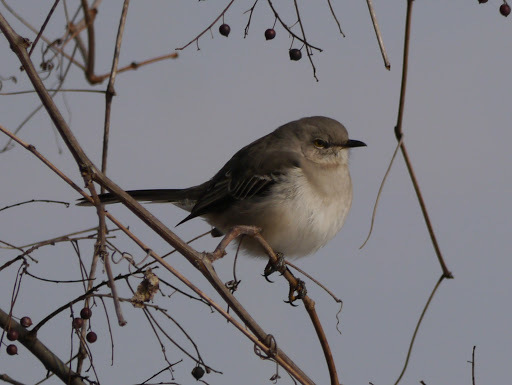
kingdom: Animalia
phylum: Chordata
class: Aves
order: Passeriformes
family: Mimidae
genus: Mimus
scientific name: Mimus polyglottos
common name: Northern mockingbird
